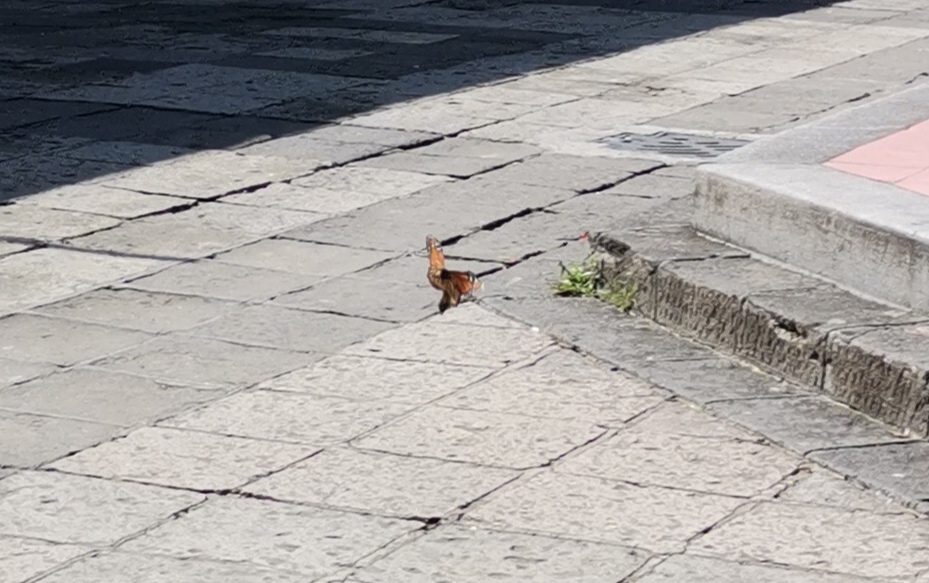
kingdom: Animalia
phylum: Arthropoda
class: Insecta
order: Lepidoptera
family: Nymphalidae
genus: Danaus
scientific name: Danaus plexippus
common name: Monarch
